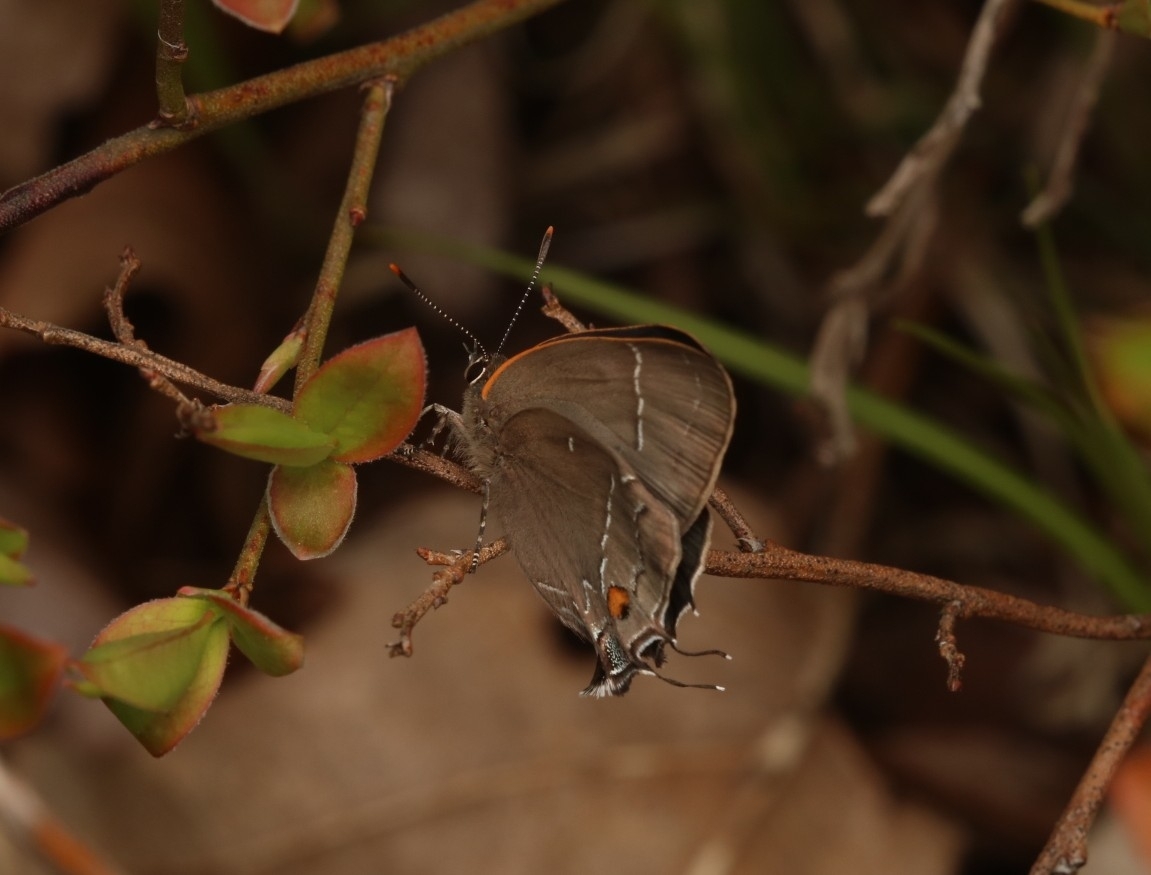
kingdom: Animalia
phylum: Arthropoda
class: Insecta
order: Lepidoptera
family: Lycaenidae
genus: Parrhasius
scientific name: Parrhasius m-album
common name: White m hairstreak
